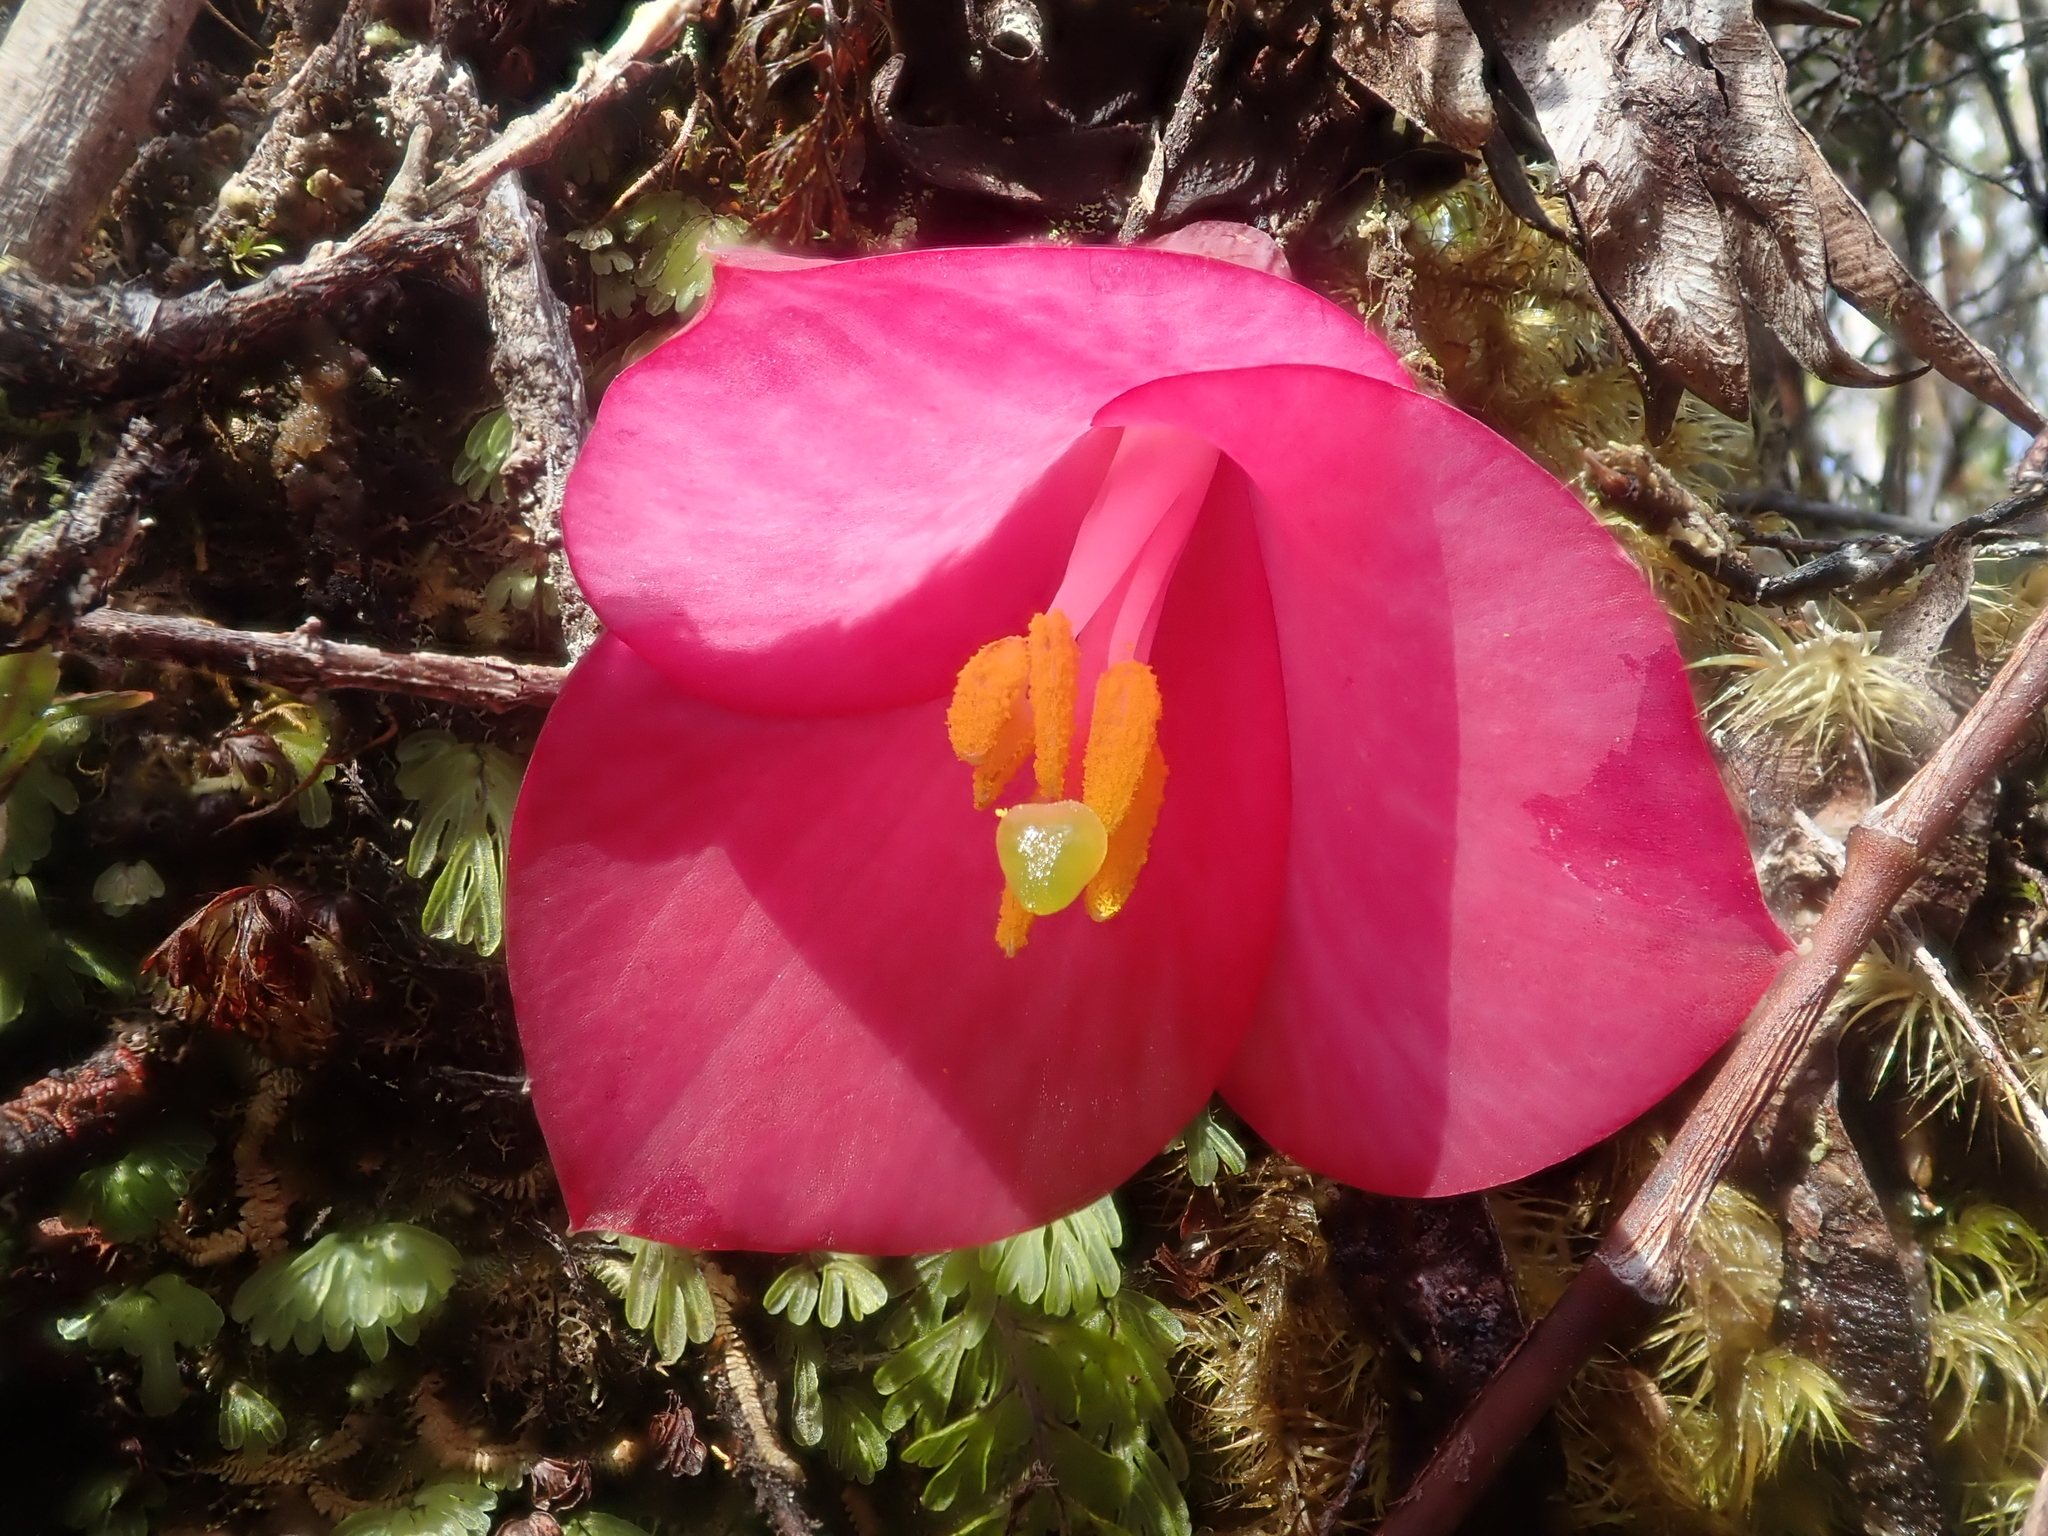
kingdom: Plantae
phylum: Tracheophyta
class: Liliopsida
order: Liliales
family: Philesiaceae
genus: Philesia
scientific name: Philesia magellanica
